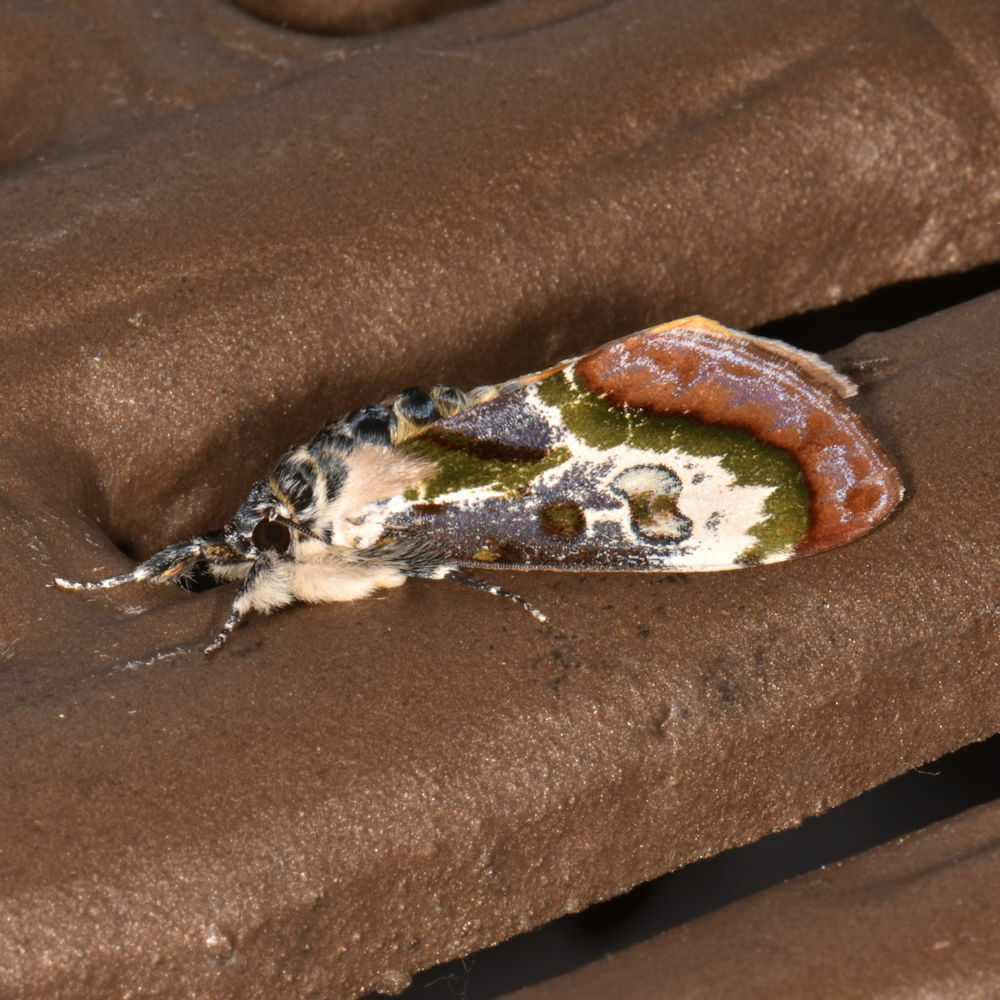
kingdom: Animalia
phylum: Arthropoda
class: Insecta
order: Lepidoptera
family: Noctuidae
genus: Epithisanotia
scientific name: Epithisanotia sanctijohannis
